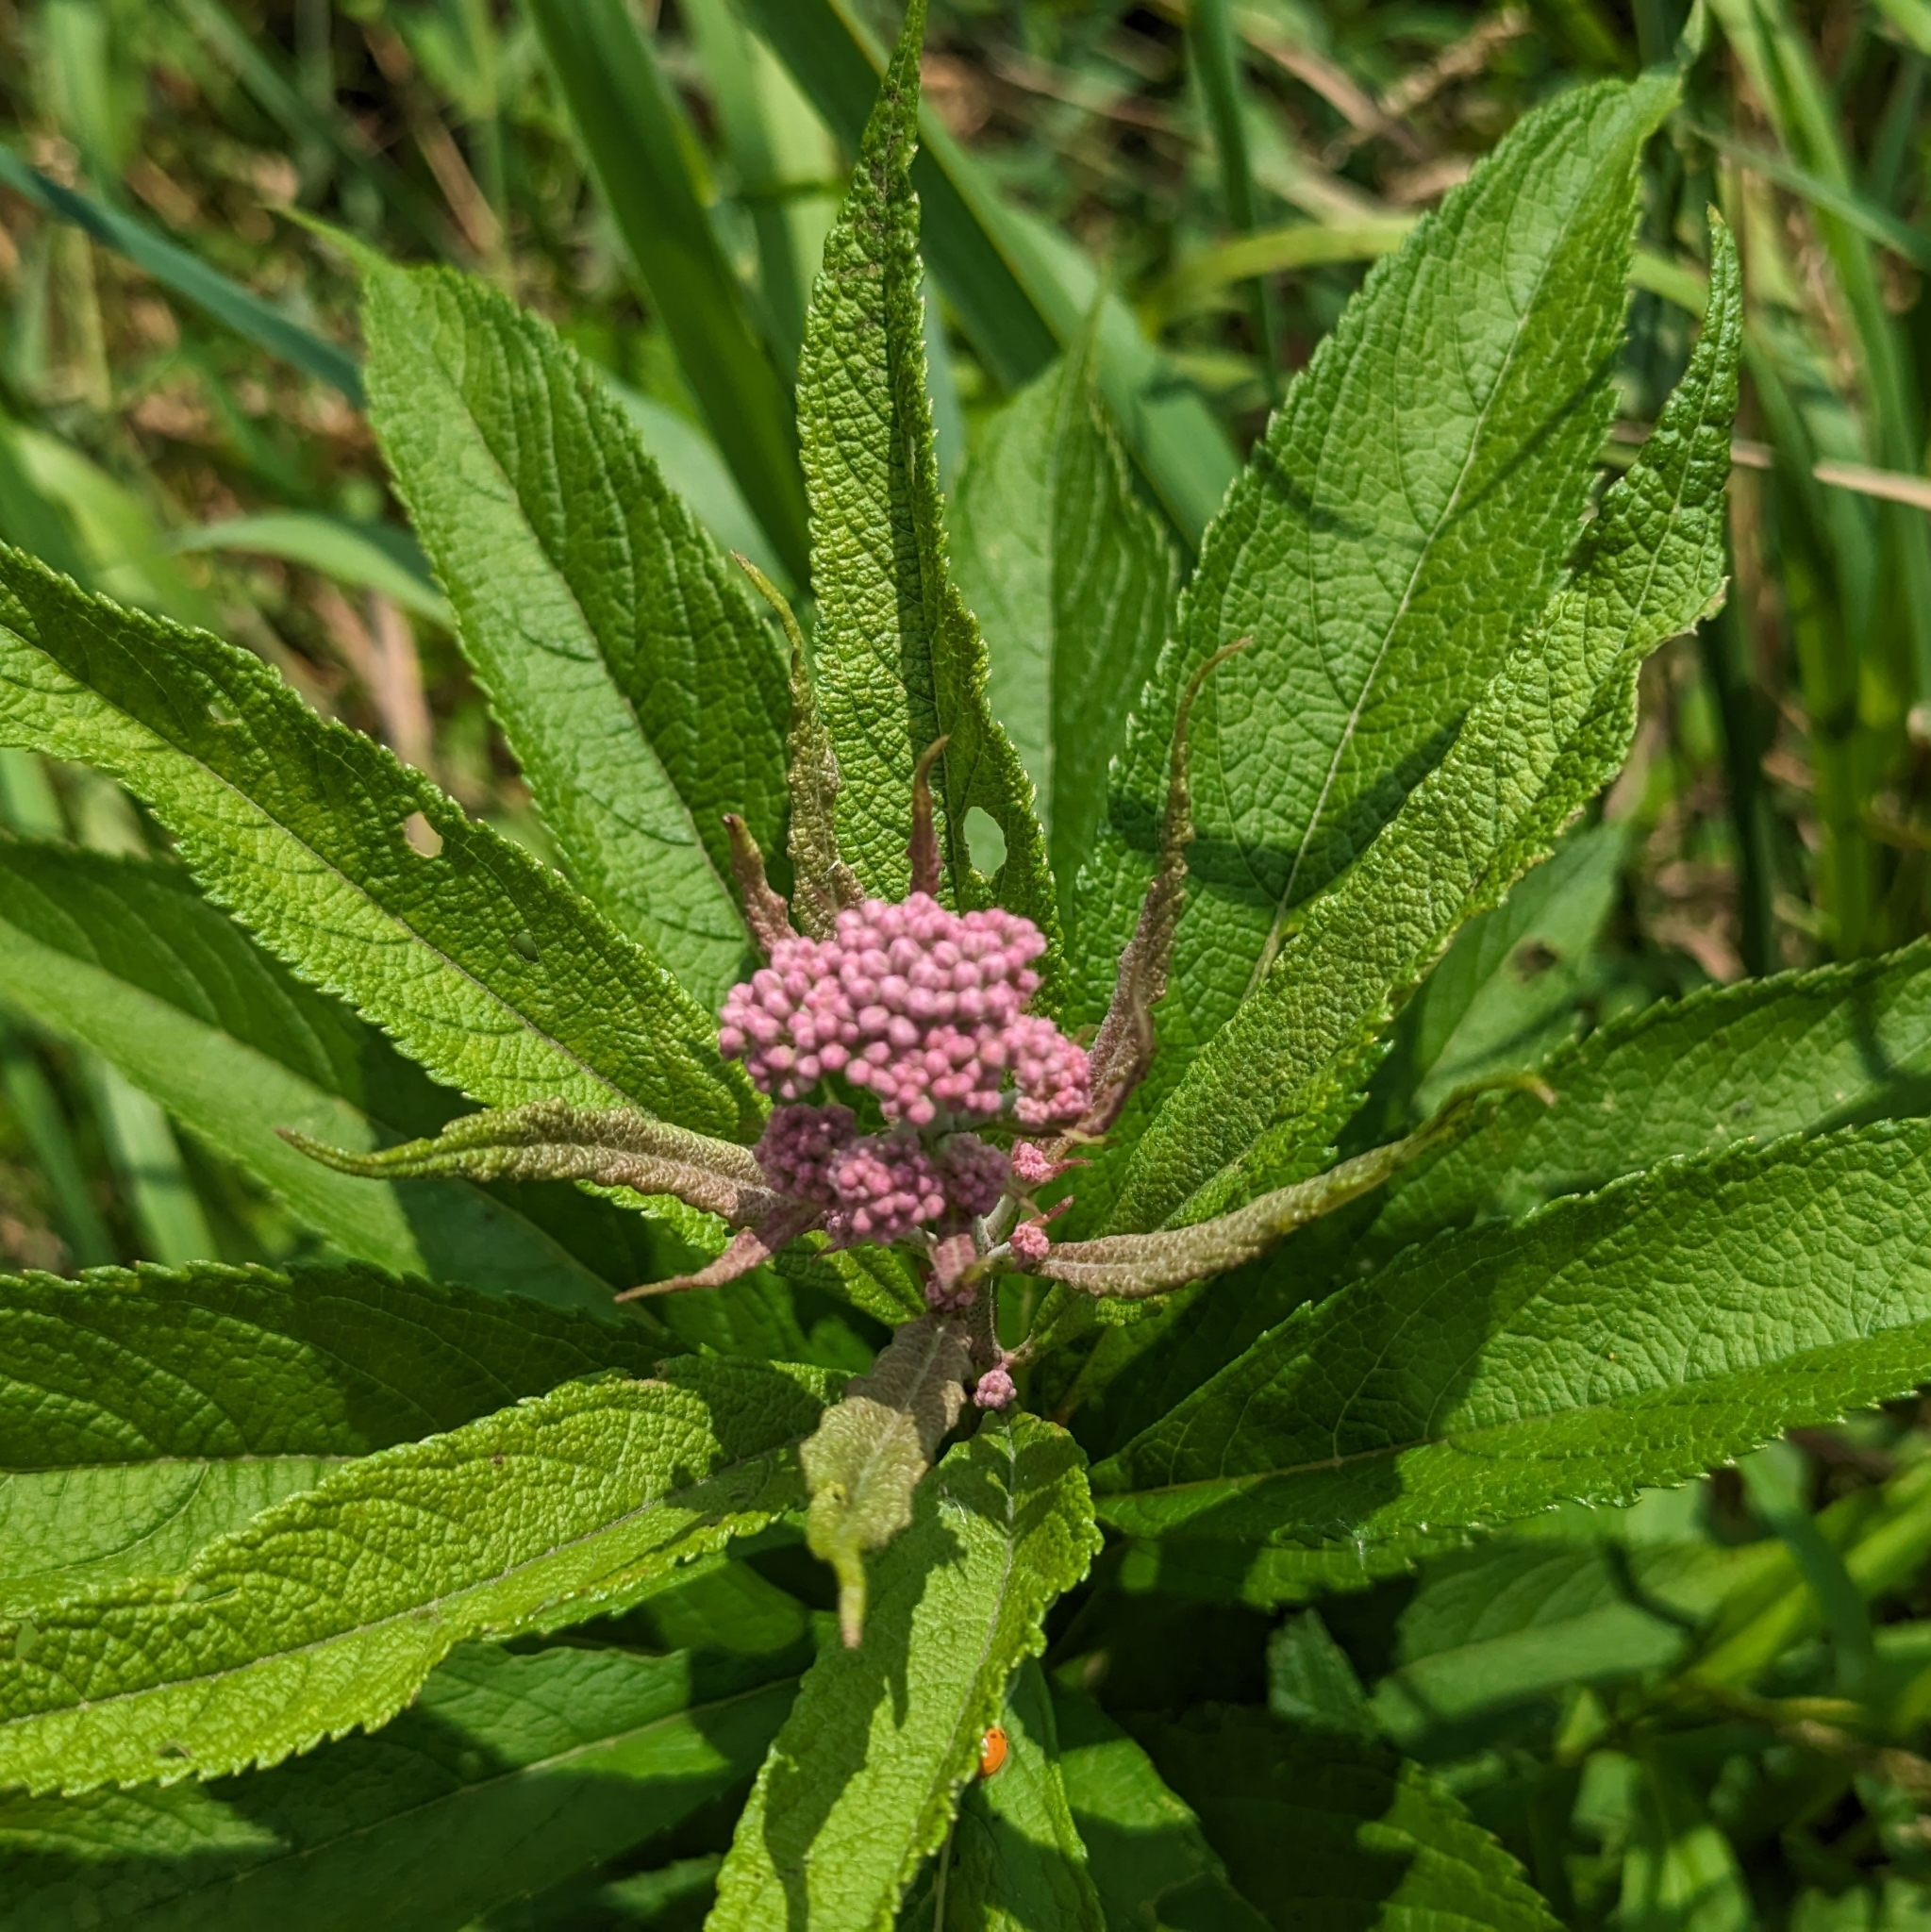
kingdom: Plantae
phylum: Tracheophyta
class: Magnoliopsida
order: Asterales
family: Asteraceae
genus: Eutrochium
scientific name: Eutrochium maculatum
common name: Spotted joe pye weed
